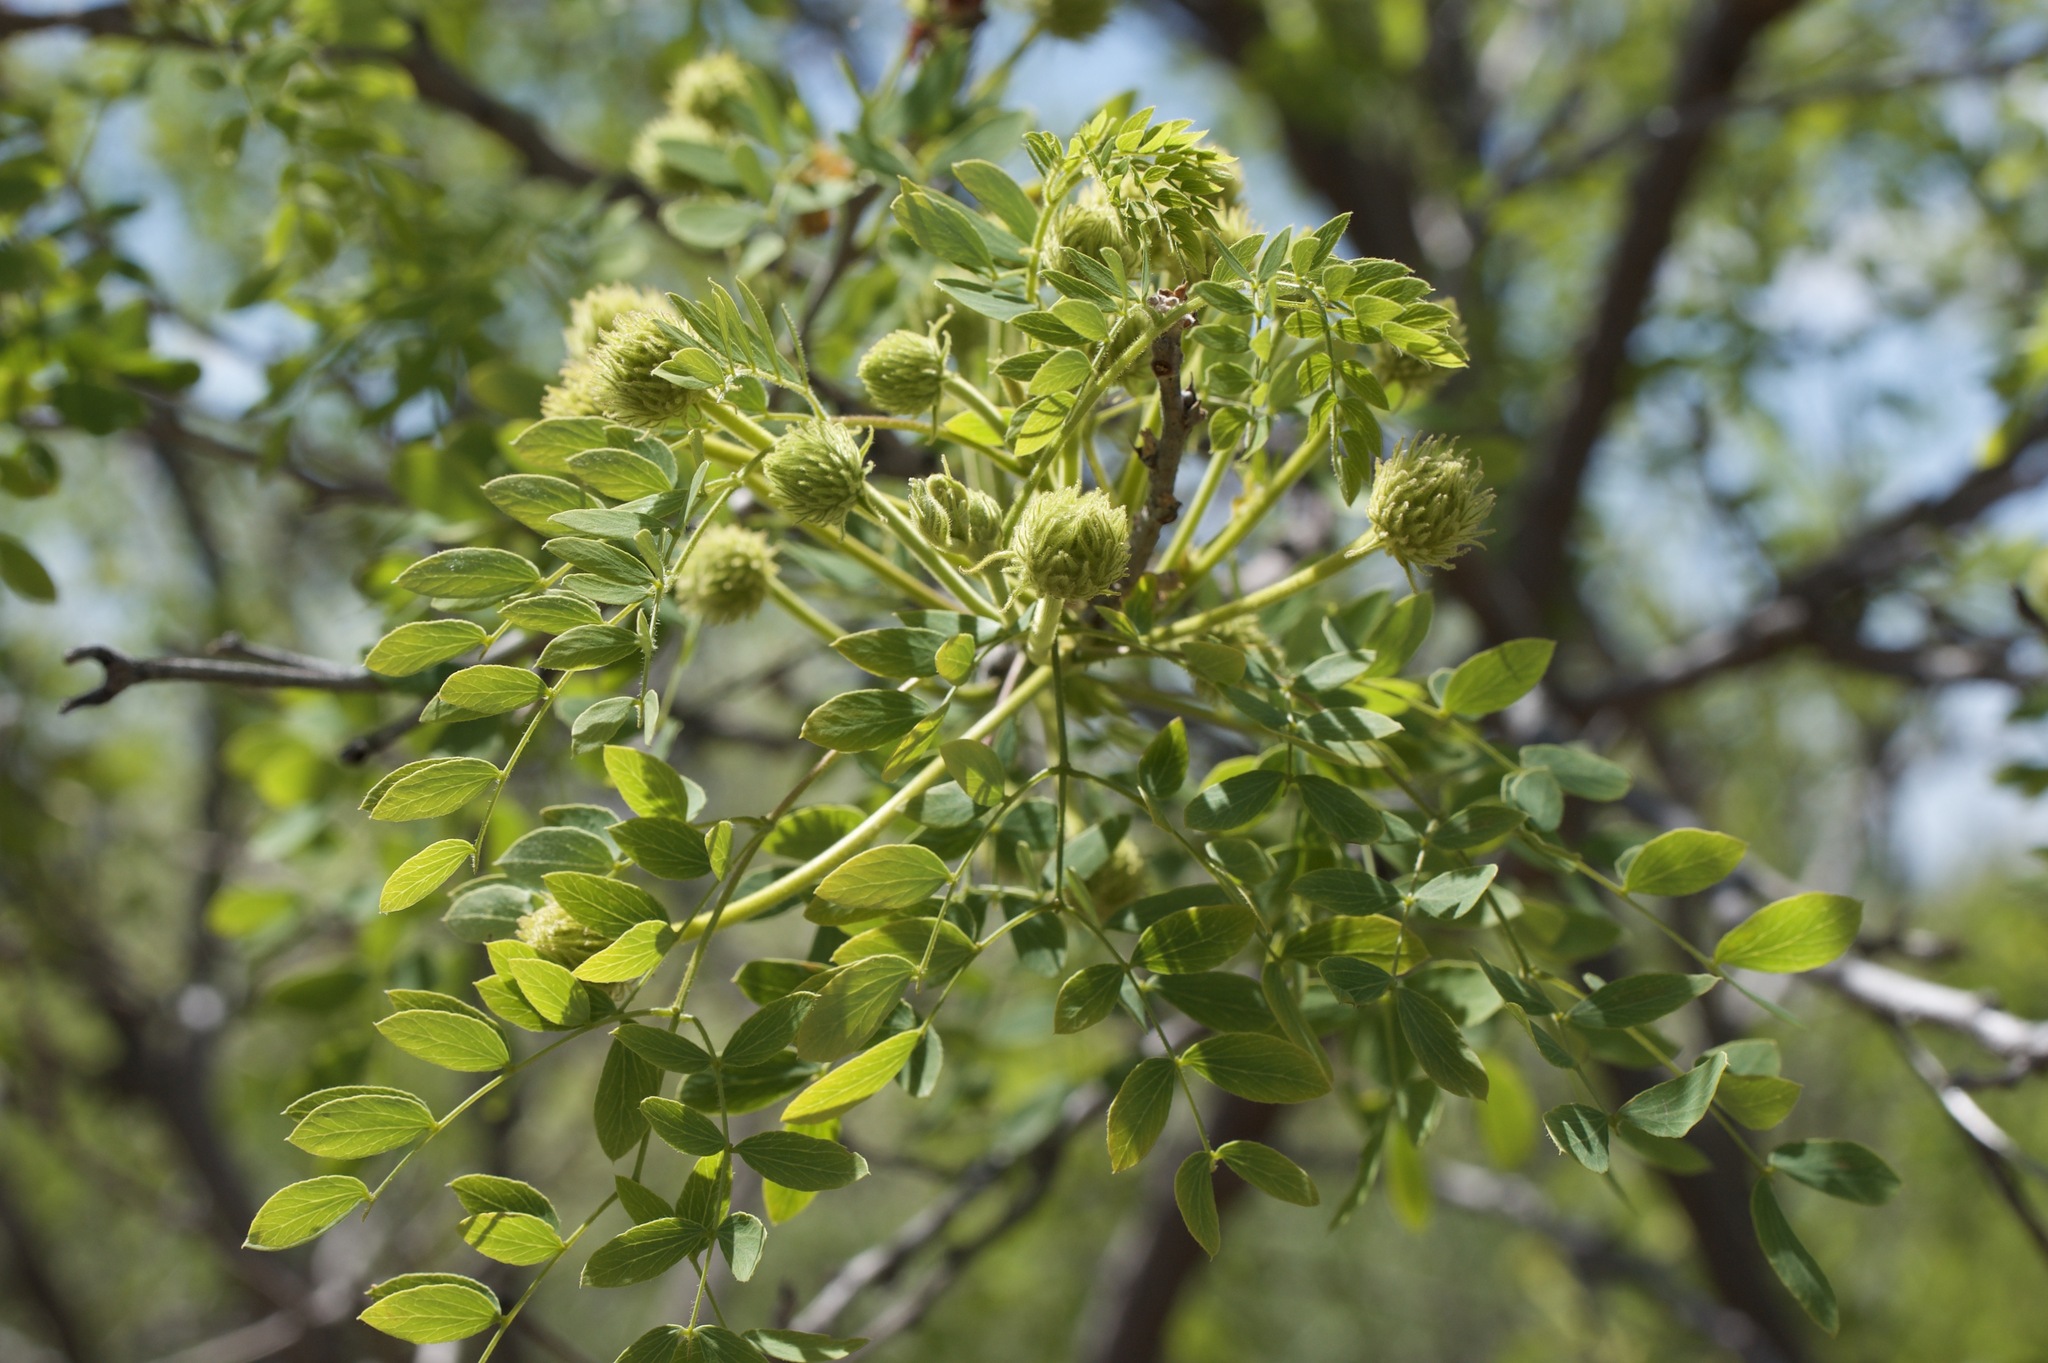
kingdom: Plantae
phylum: Tracheophyta
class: Magnoliopsida
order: Fabales
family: Fabaceae
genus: Leucaena
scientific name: Leucaena retusa
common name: Littleleaf leadtree
